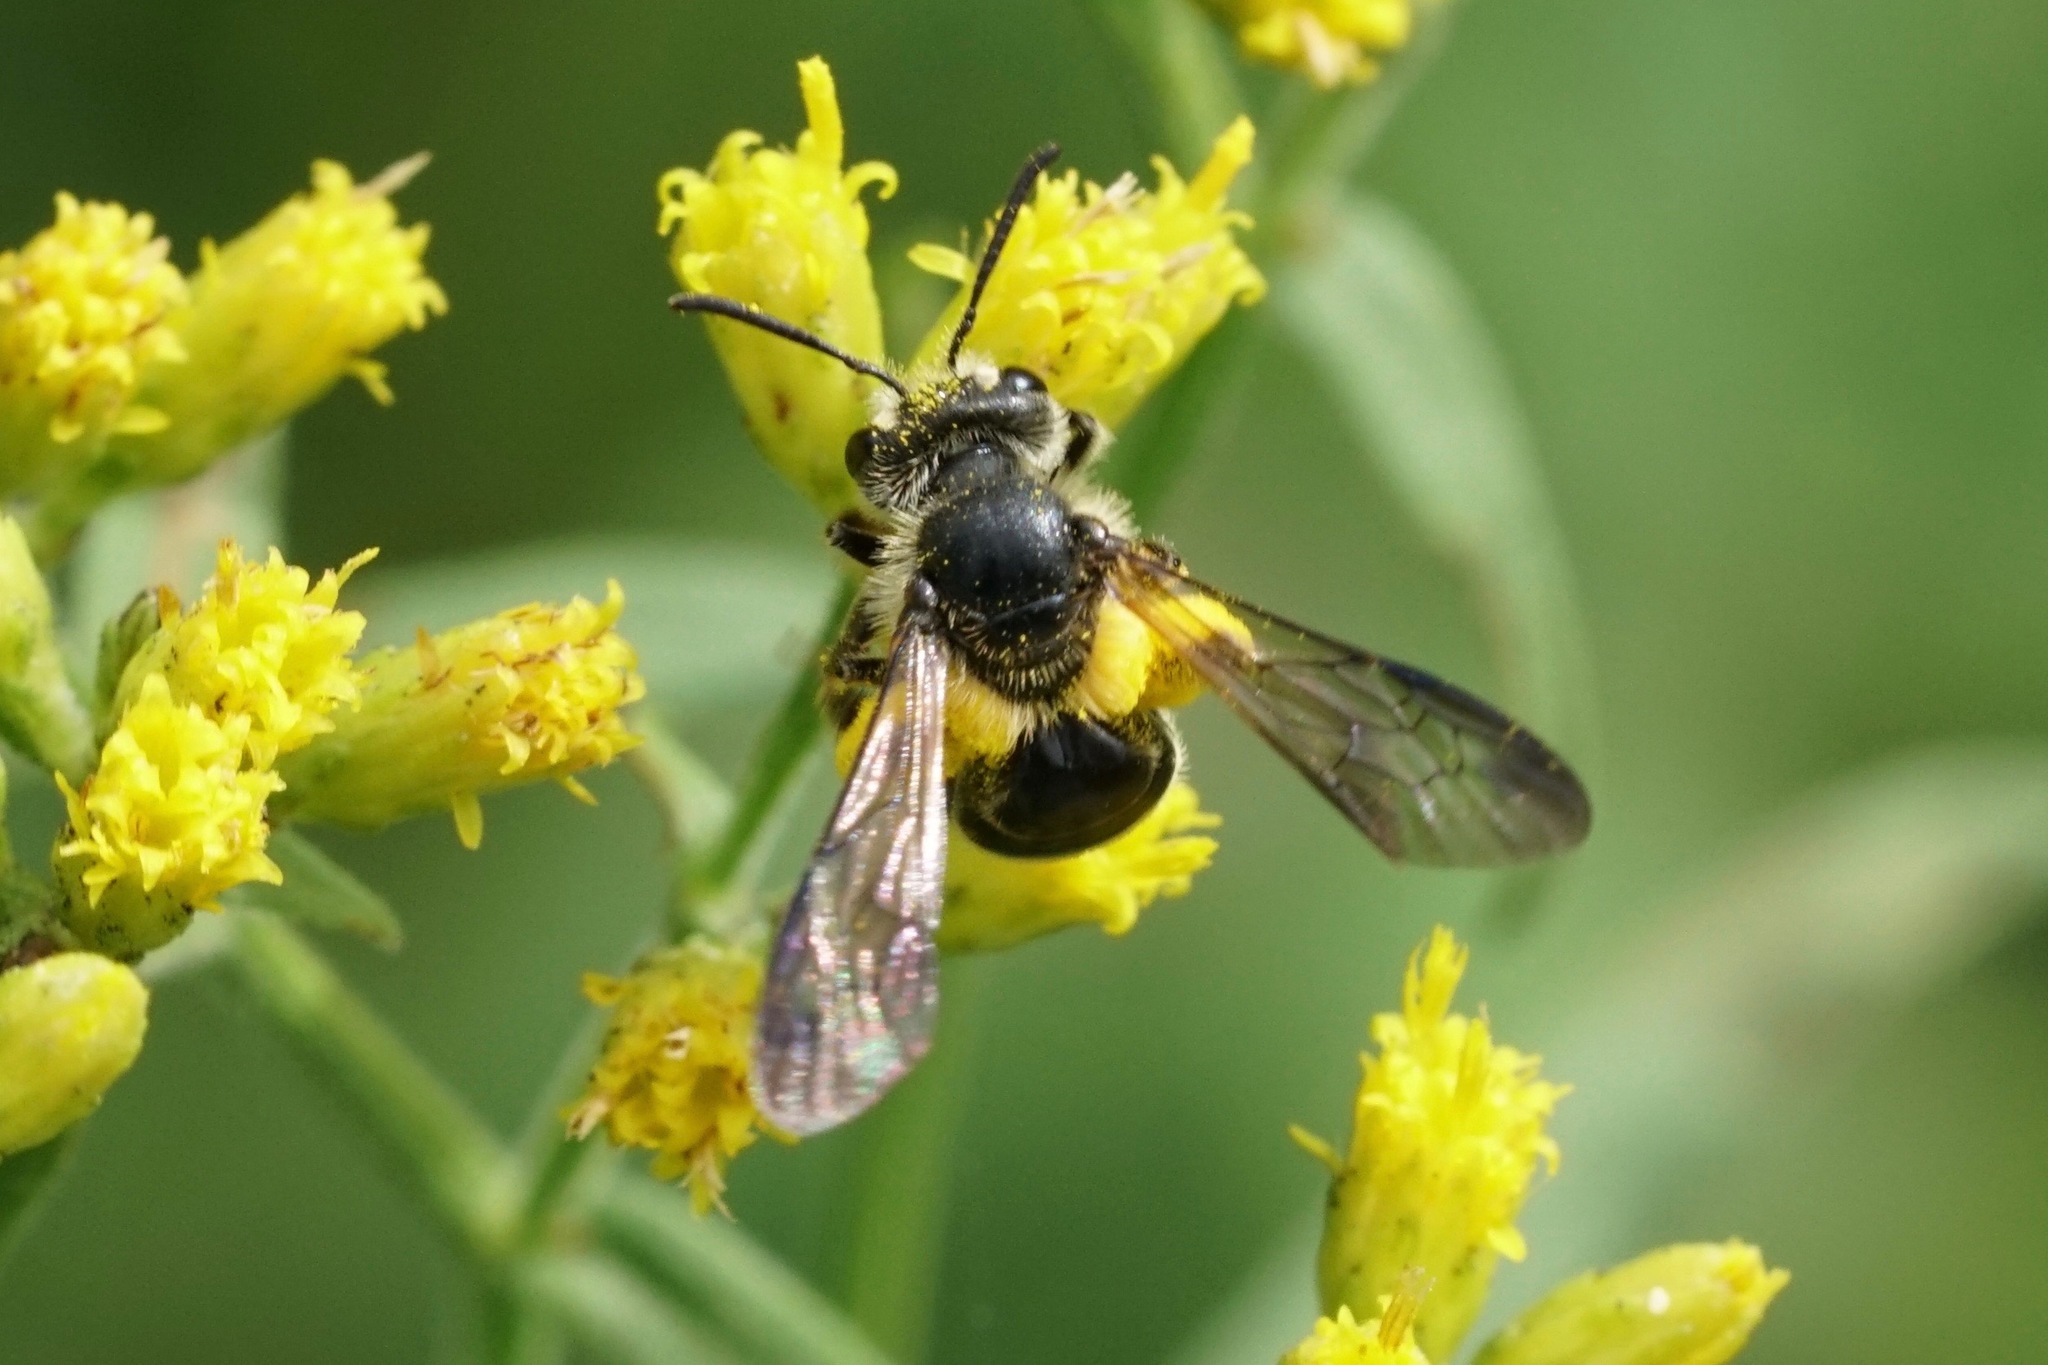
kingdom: Animalia
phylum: Arthropoda
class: Insecta
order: Hymenoptera
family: Andrenidae
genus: Andrena
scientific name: Andrena nubecula
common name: Cloudy-winged mining bee
